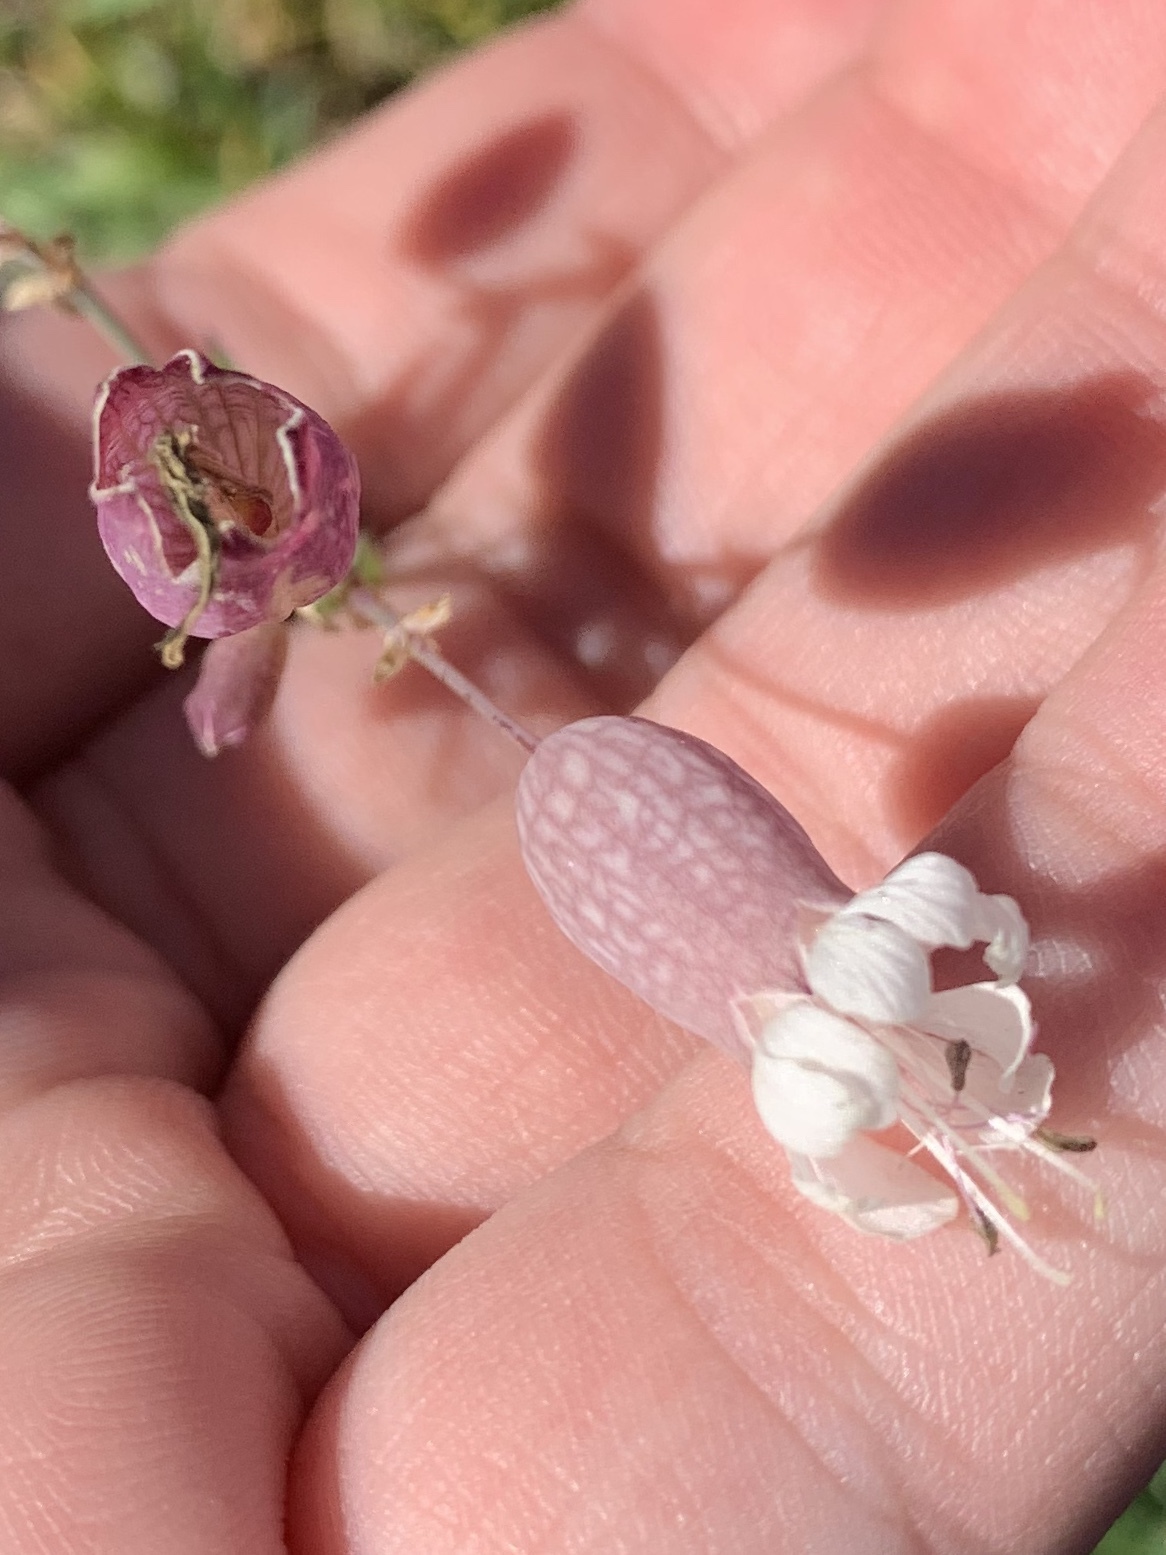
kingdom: Plantae
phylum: Tracheophyta
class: Magnoliopsida
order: Caryophyllales
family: Caryophyllaceae
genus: Silene
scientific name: Silene vulgaris
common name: Bladder campion
